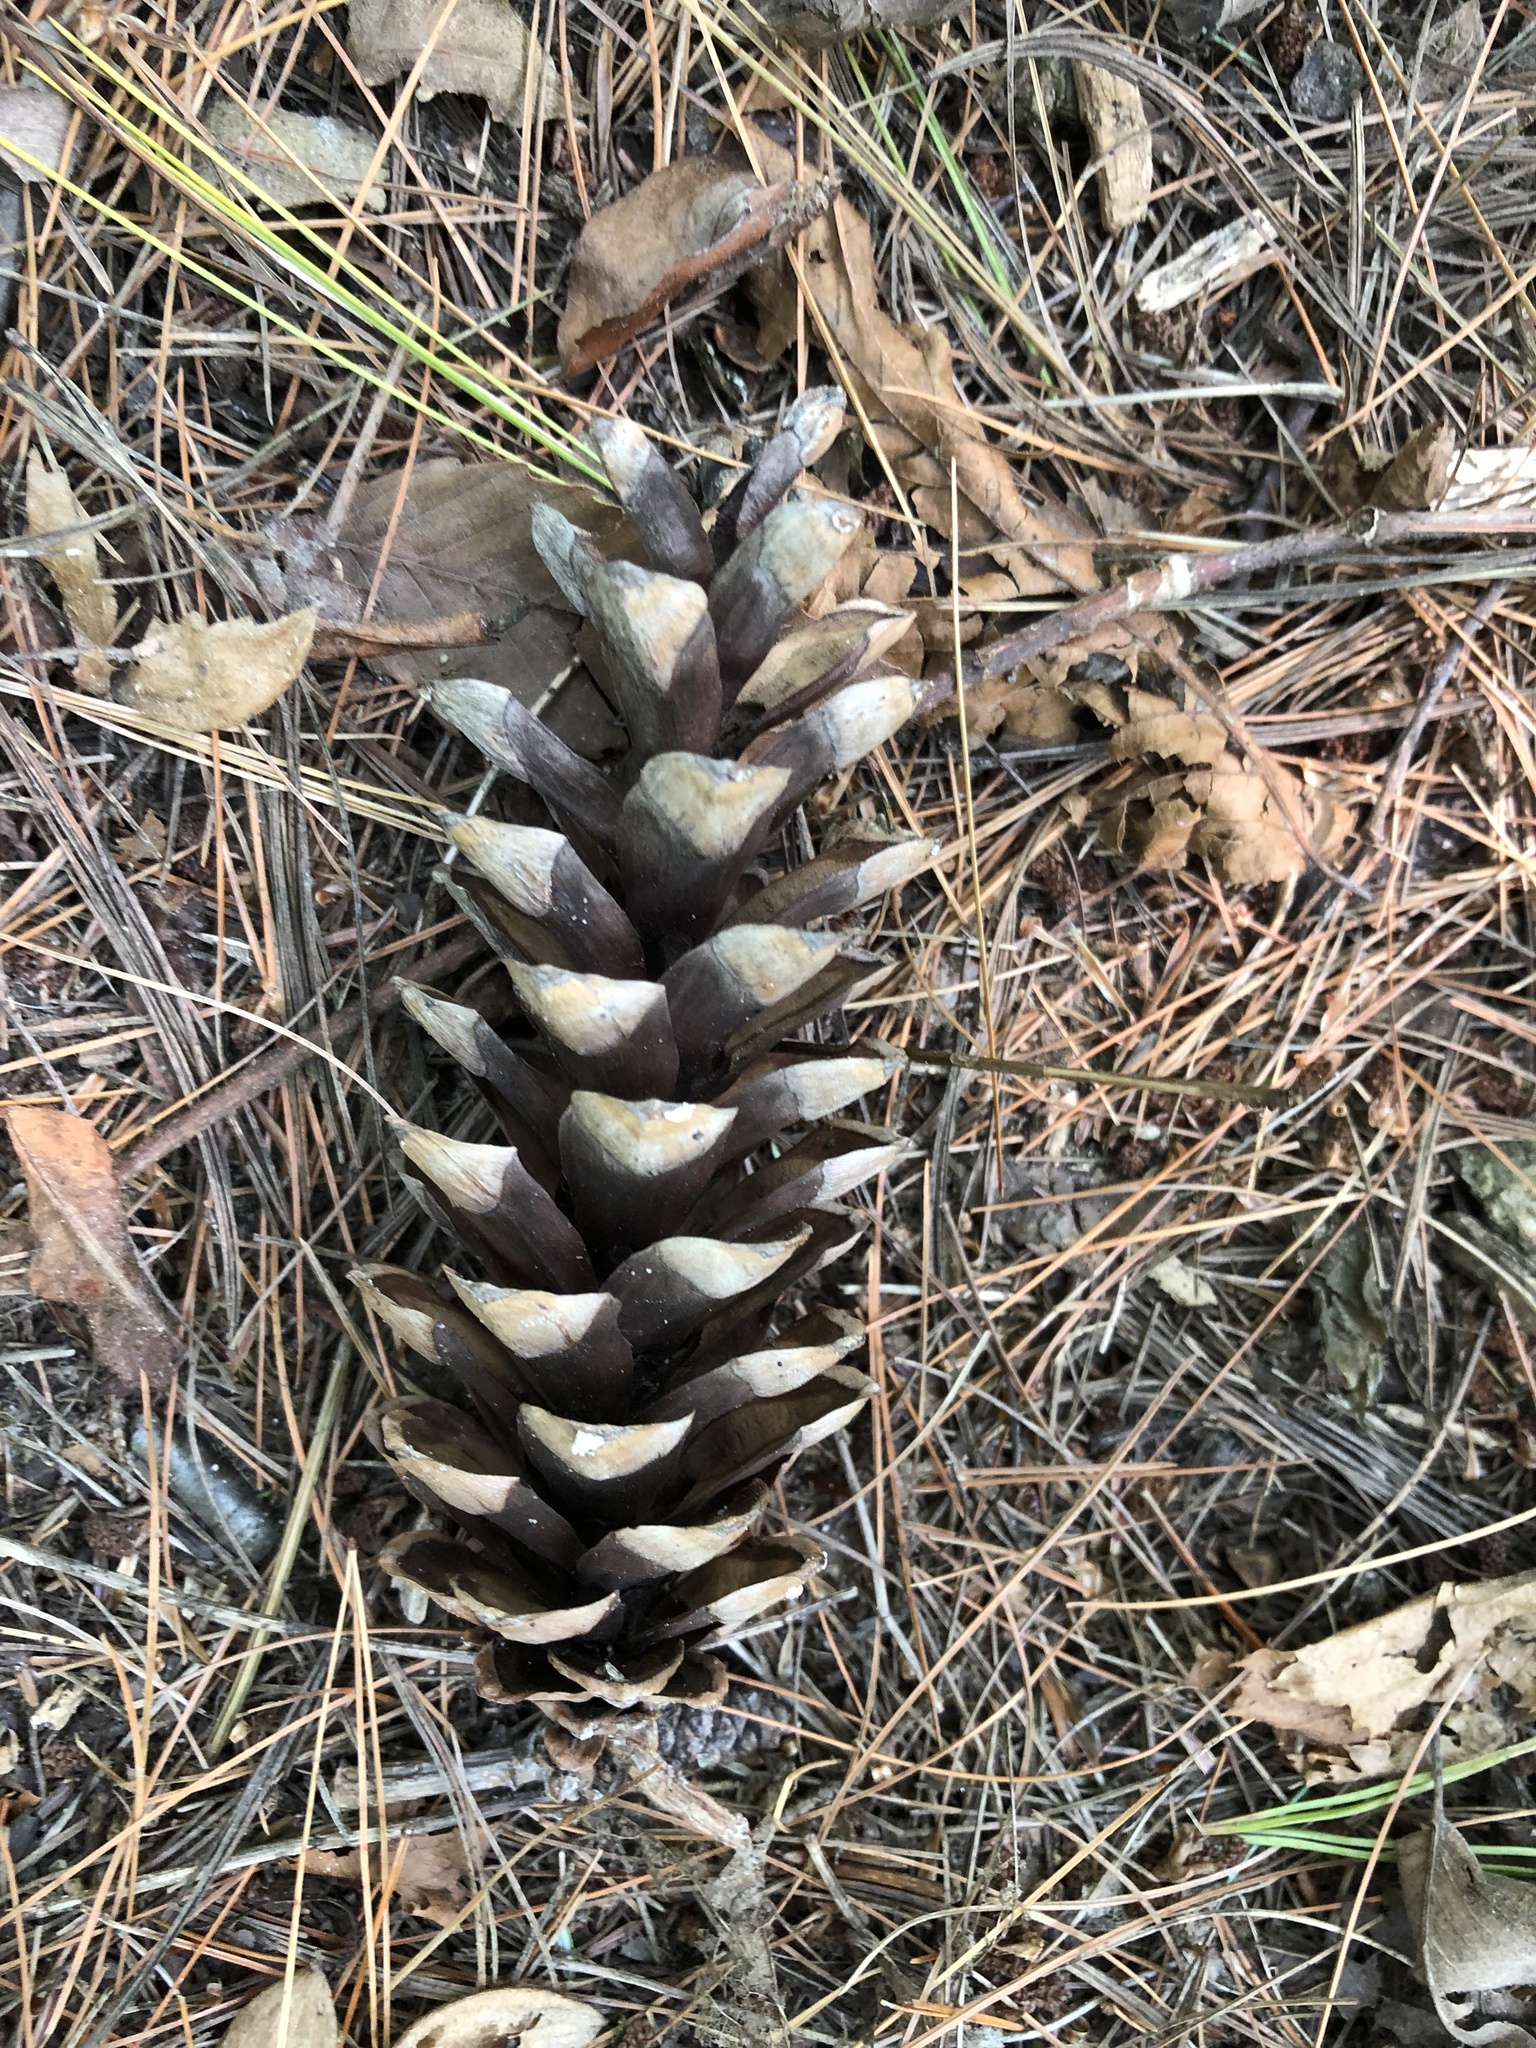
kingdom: Plantae
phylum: Tracheophyta
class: Pinopsida
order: Pinales
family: Pinaceae
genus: Pinus
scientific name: Pinus strobus
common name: Weymouth pine
